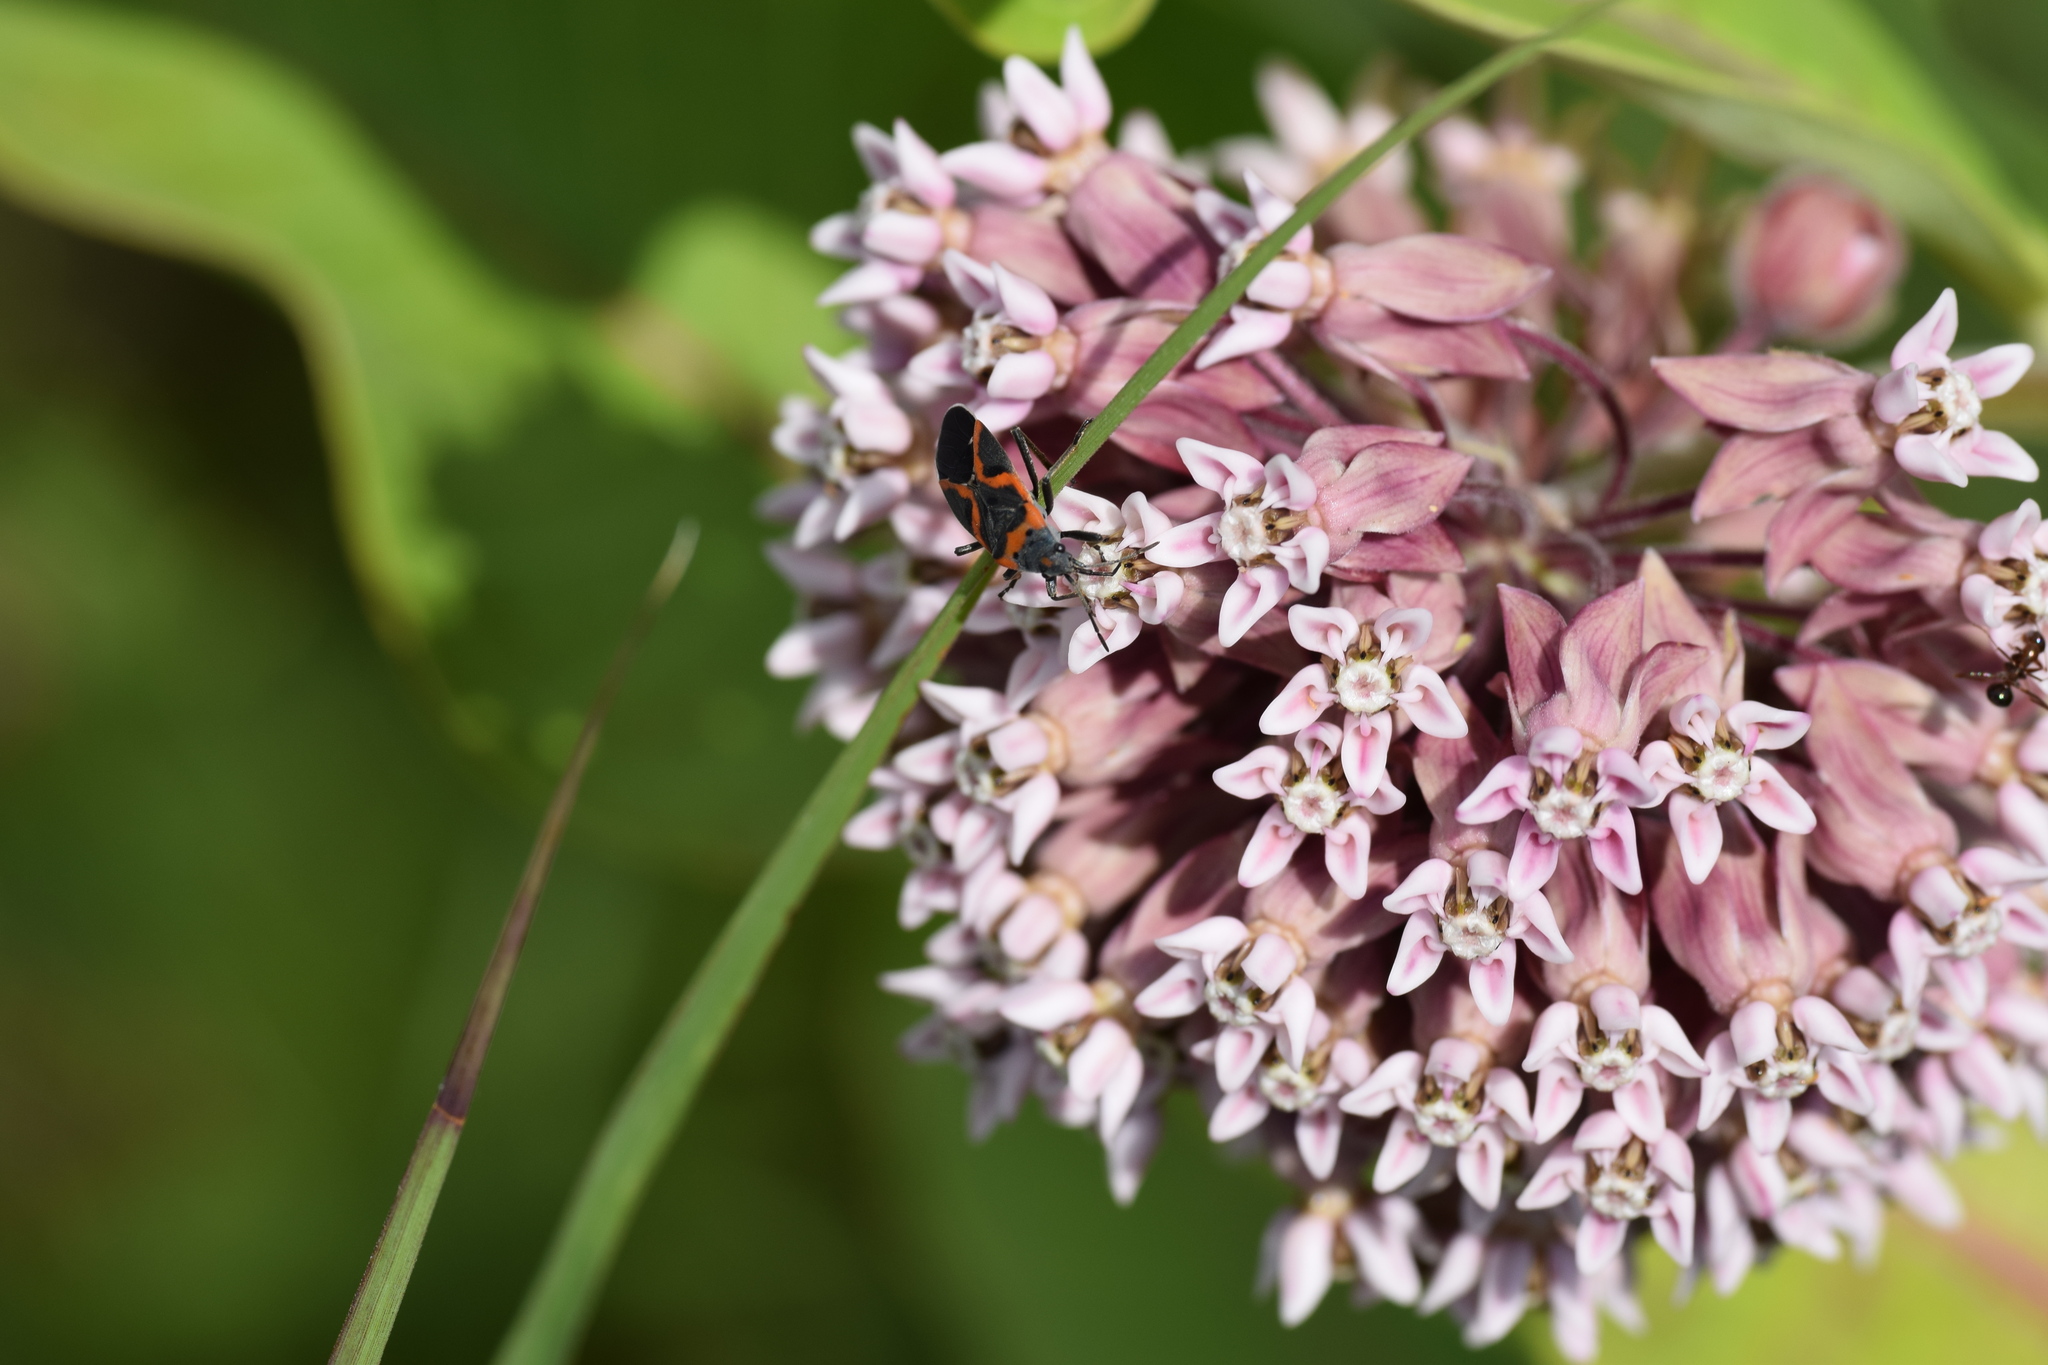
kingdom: Animalia
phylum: Arthropoda
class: Insecta
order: Hemiptera
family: Lygaeidae
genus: Lygaeus
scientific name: Lygaeus kalmii
